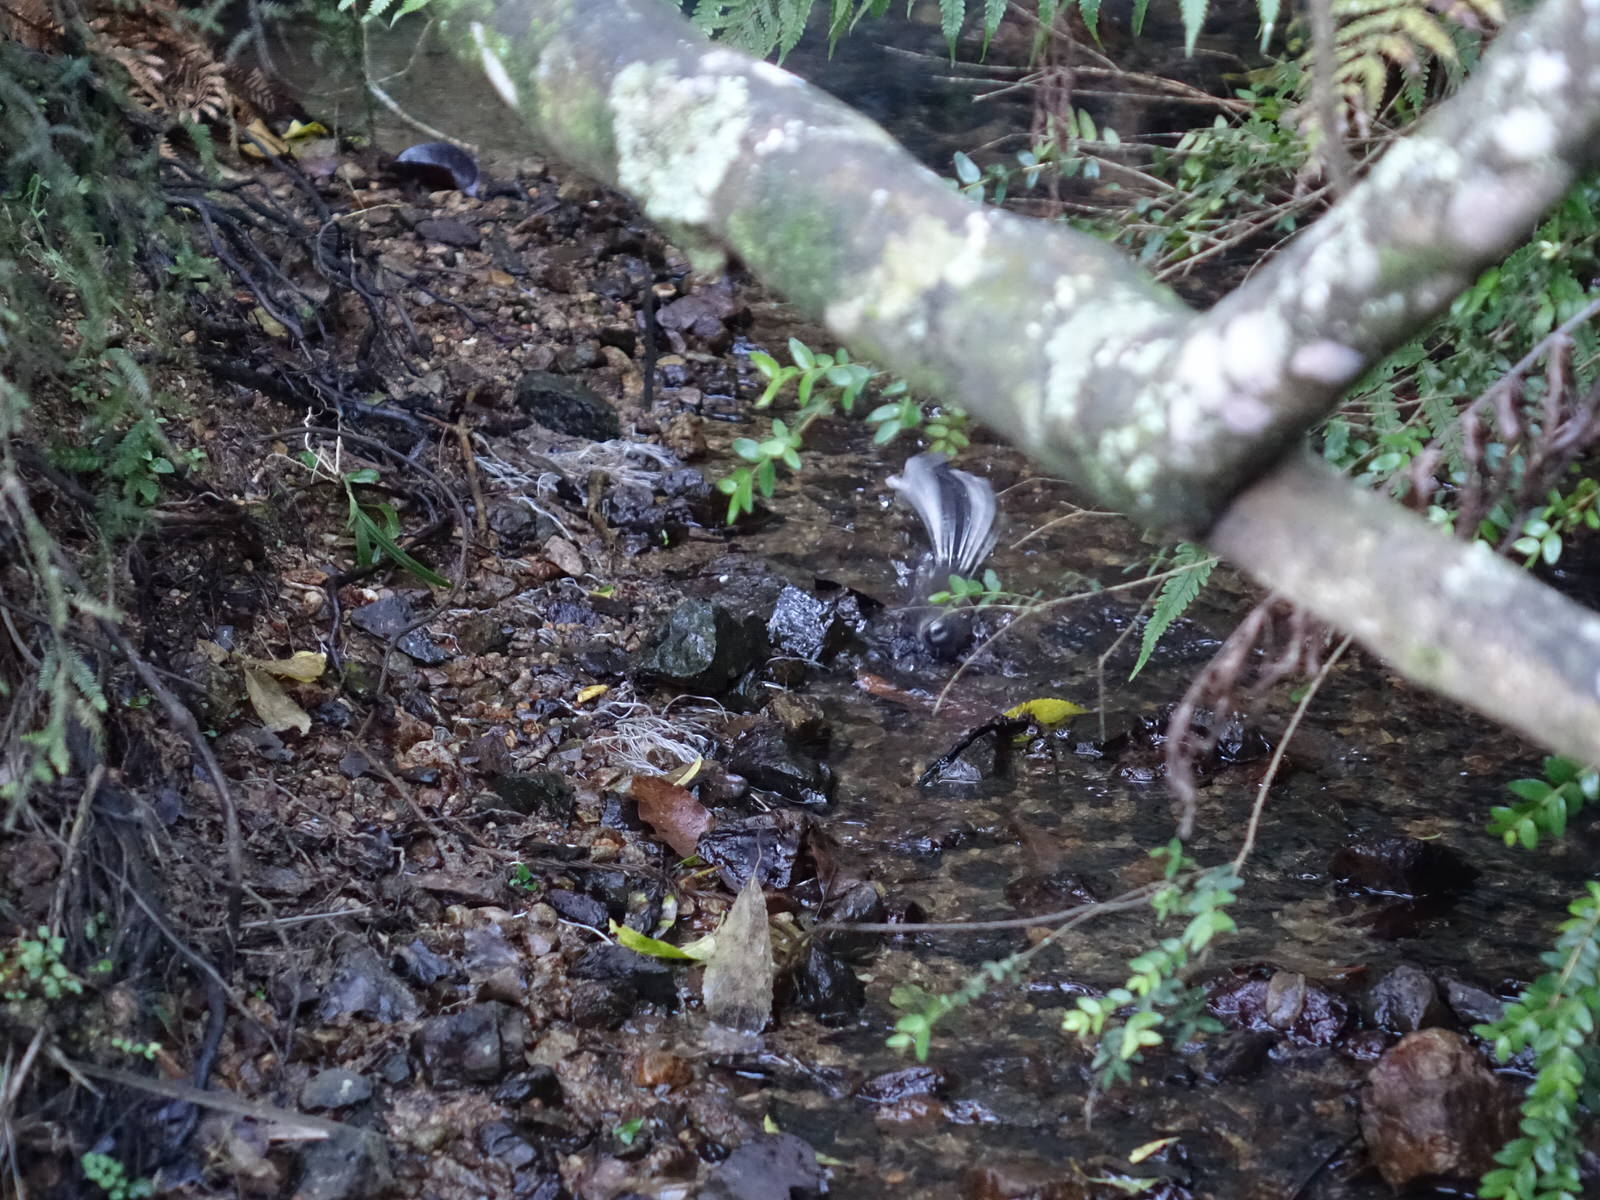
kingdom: Animalia
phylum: Chordata
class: Aves
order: Passeriformes
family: Rhipiduridae
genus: Rhipidura
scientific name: Rhipidura fuliginosa
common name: New zealand fantail
